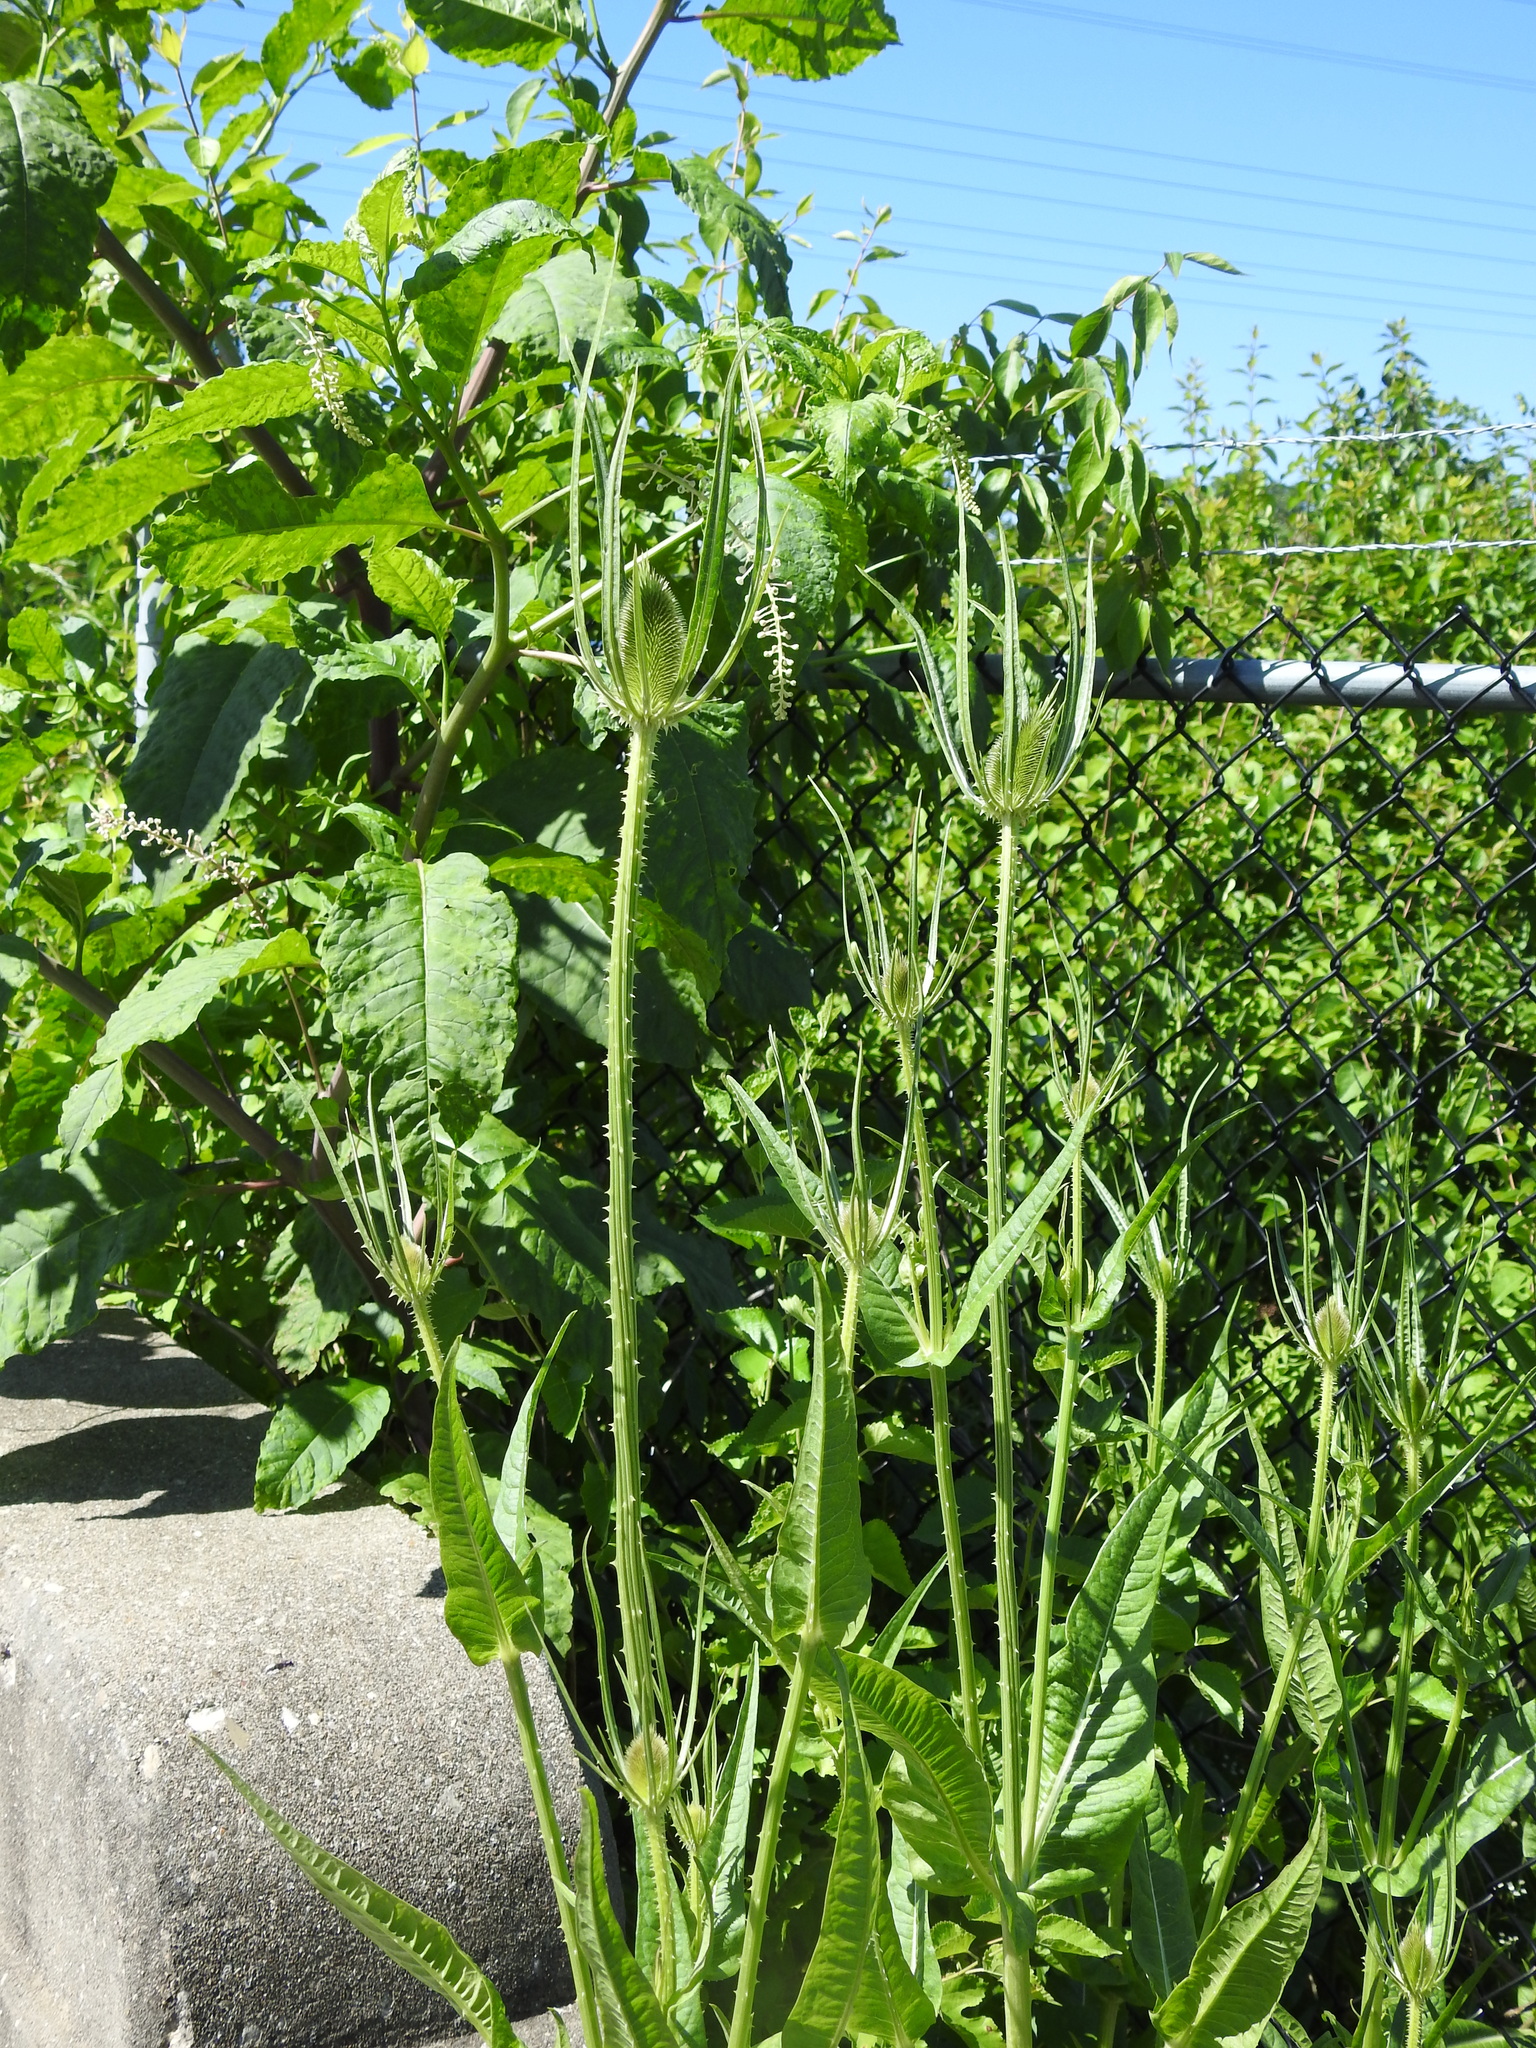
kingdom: Plantae
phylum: Tracheophyta
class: Magnoliopsida
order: Dipsacales
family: Caprifoliaceae
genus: Dipsacus
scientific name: Dipsacus fullonum
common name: Teasel
